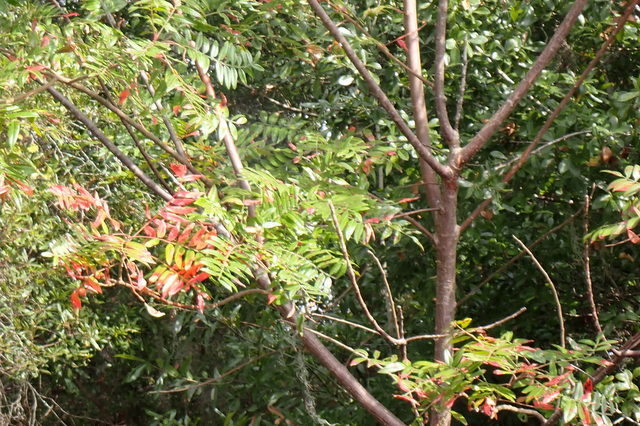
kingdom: Plantae
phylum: Tracheophyta
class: Magnoliopsida
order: Sapindales
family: Anacardiaceae
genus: Rhus
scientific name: Rhus copallina
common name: Shining sumac
